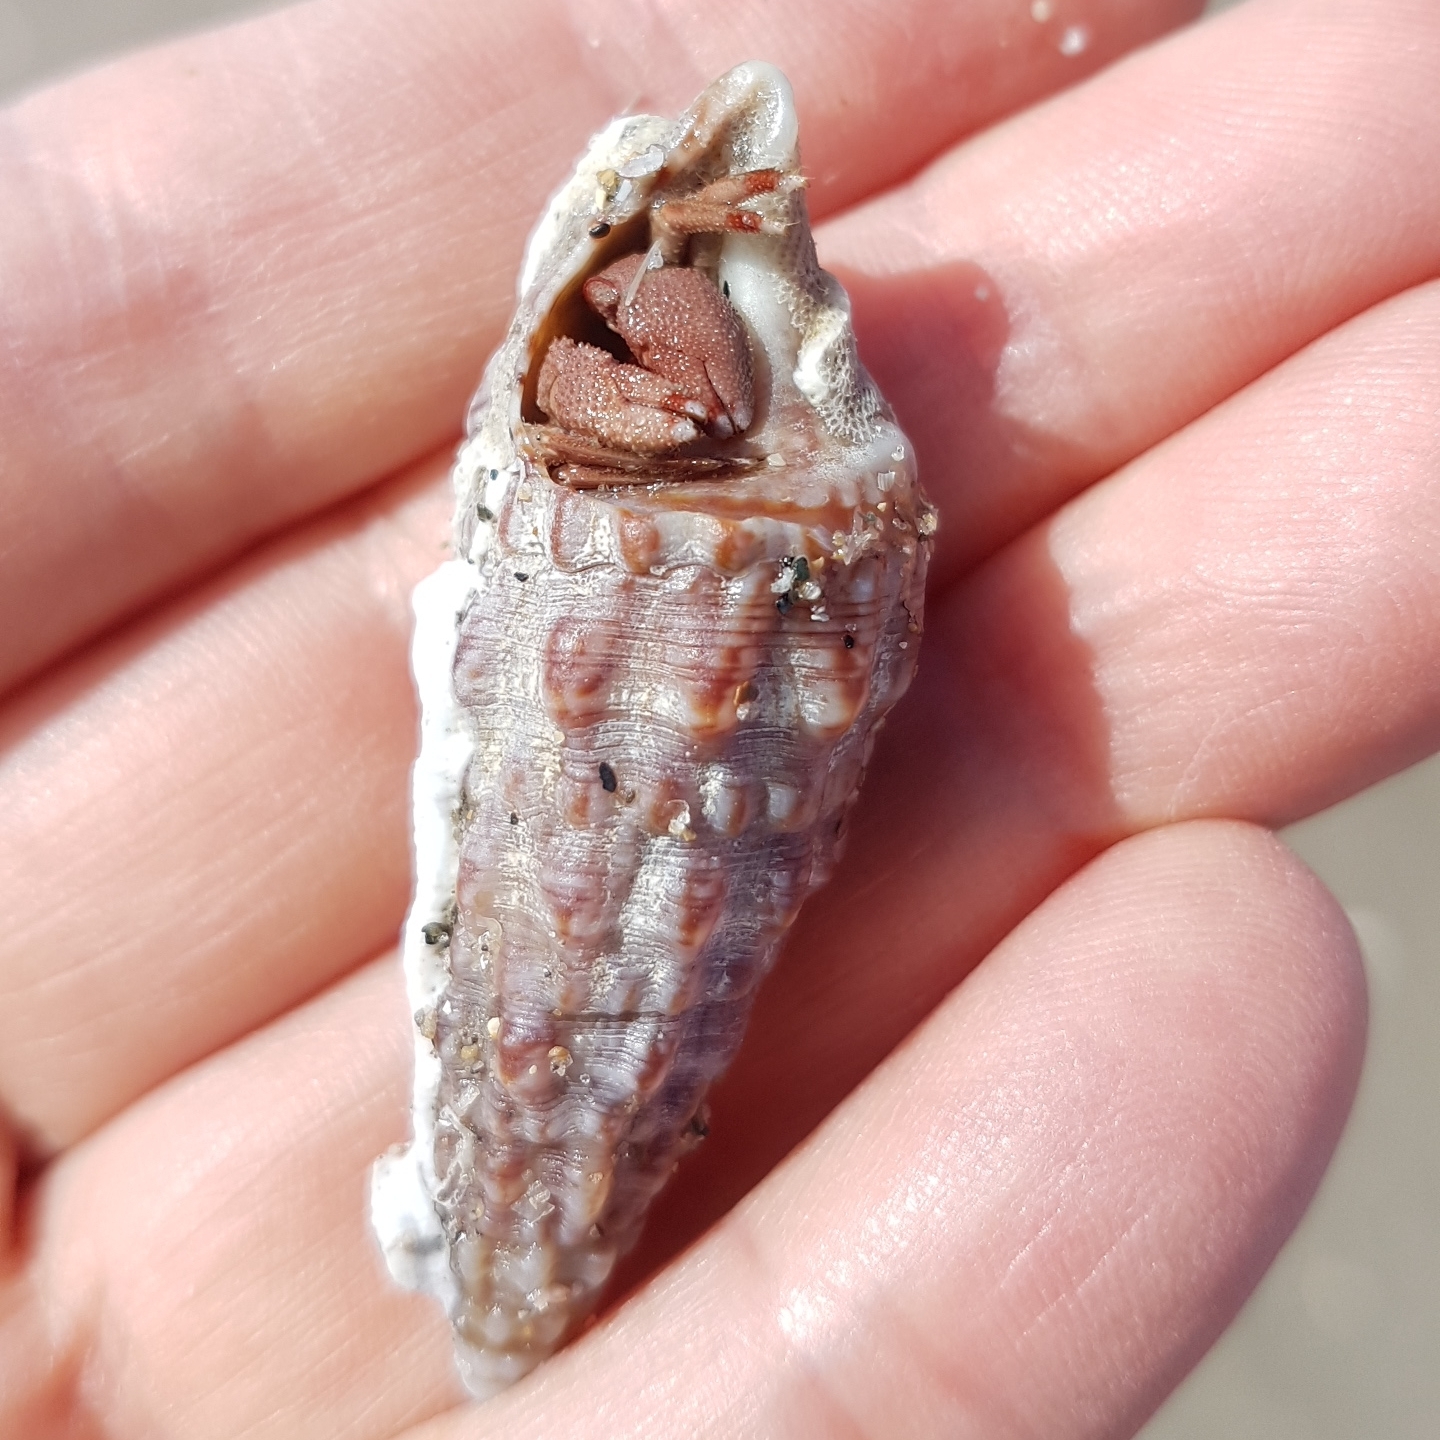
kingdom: Animalia
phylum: Mollusca
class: Gastropoda
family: Cerithiidae
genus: Cerithium
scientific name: Cerithium vulgatum
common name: European cerith
